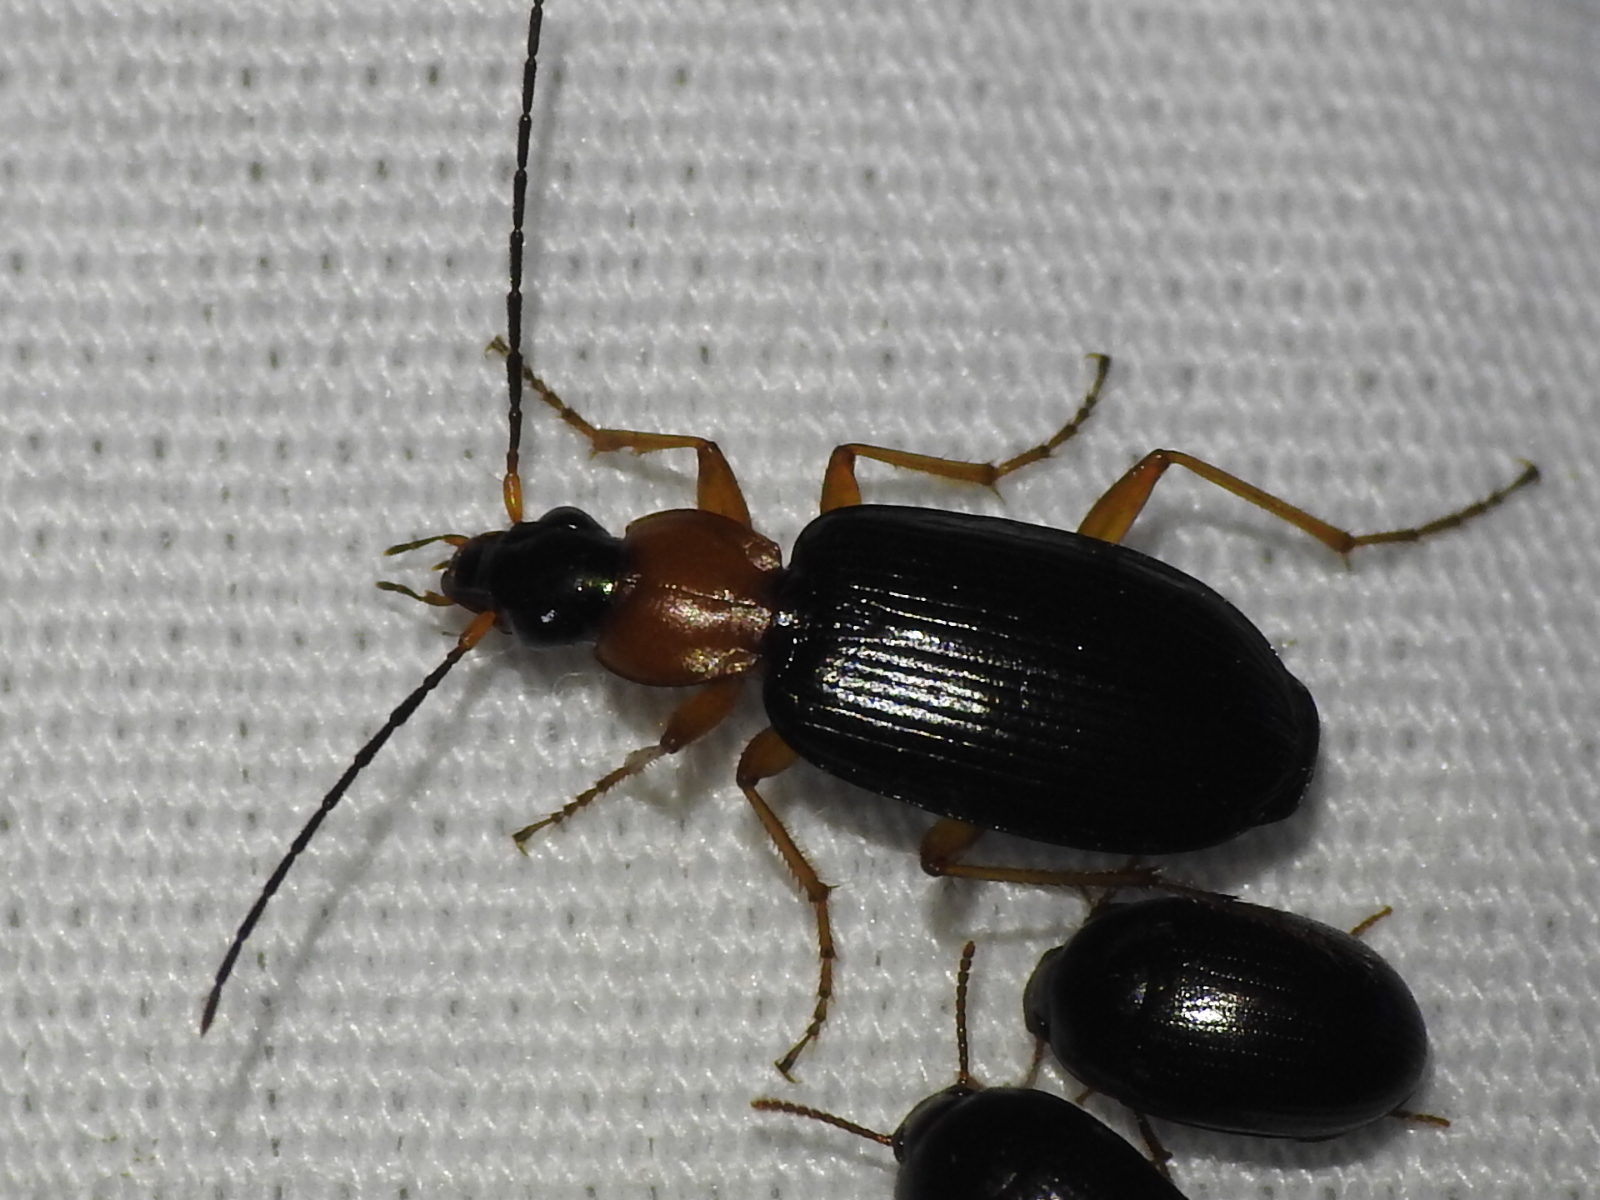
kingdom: Animalia
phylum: Arthropoda
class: Insecta
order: Coleoptera
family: Carabidae
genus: Agonum
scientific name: Agonum decorum
